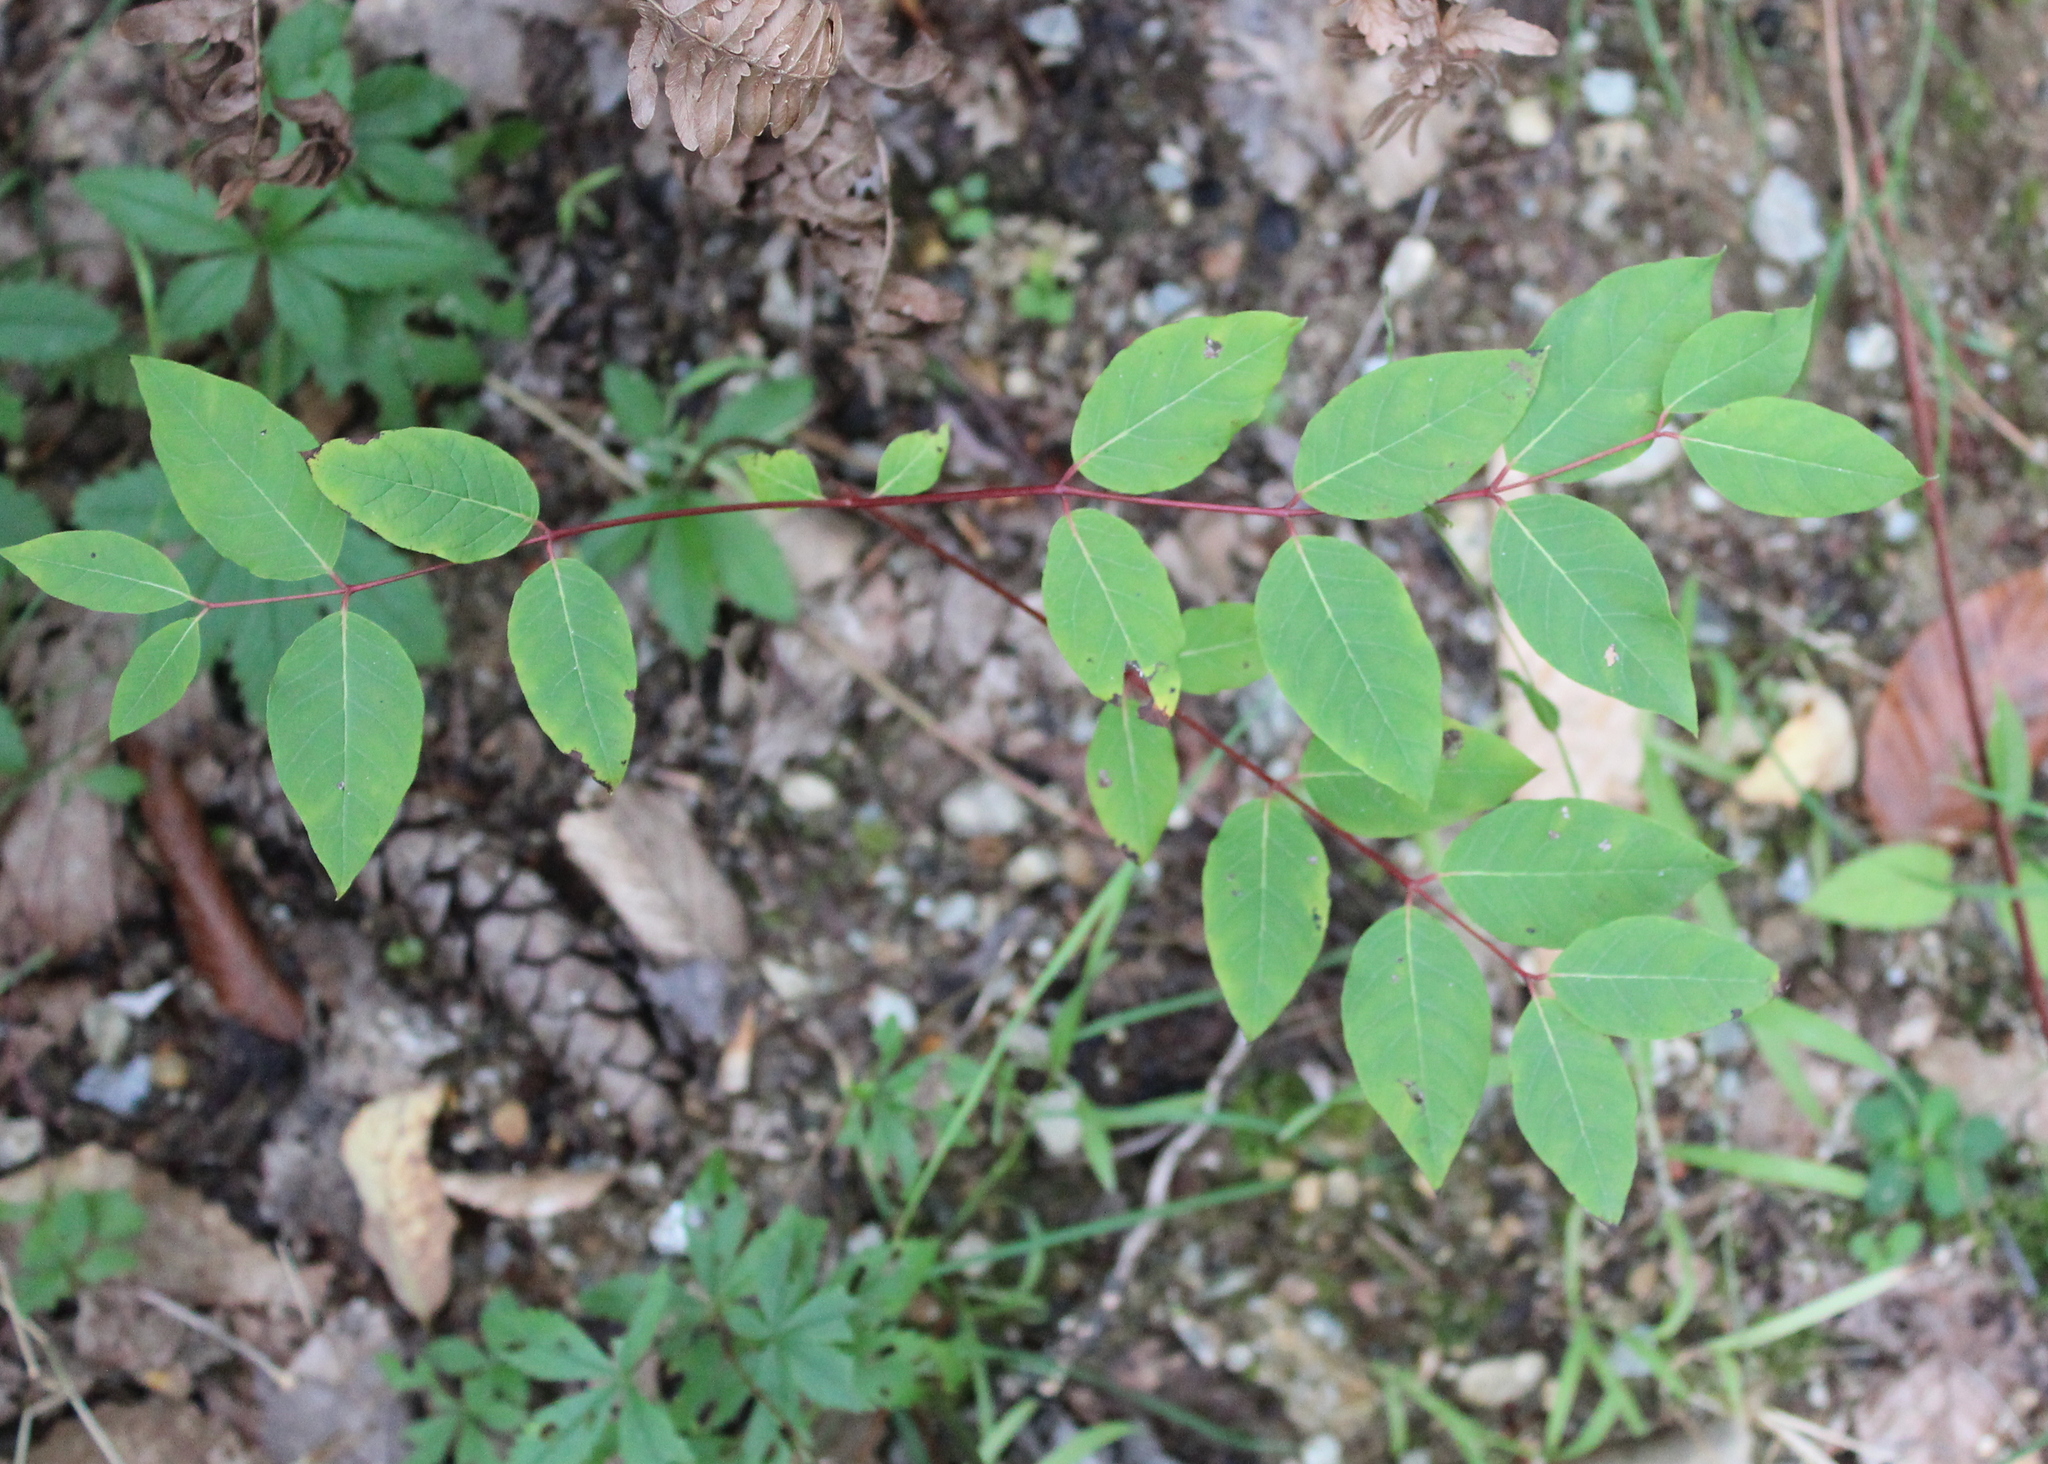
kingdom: Plantae
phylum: Tracheophyta
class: Magnoliopsida
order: Gentianales
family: Apocynaceae
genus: Apocynum
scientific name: Apocynum androsaemifolium
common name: Spreading dogbane
